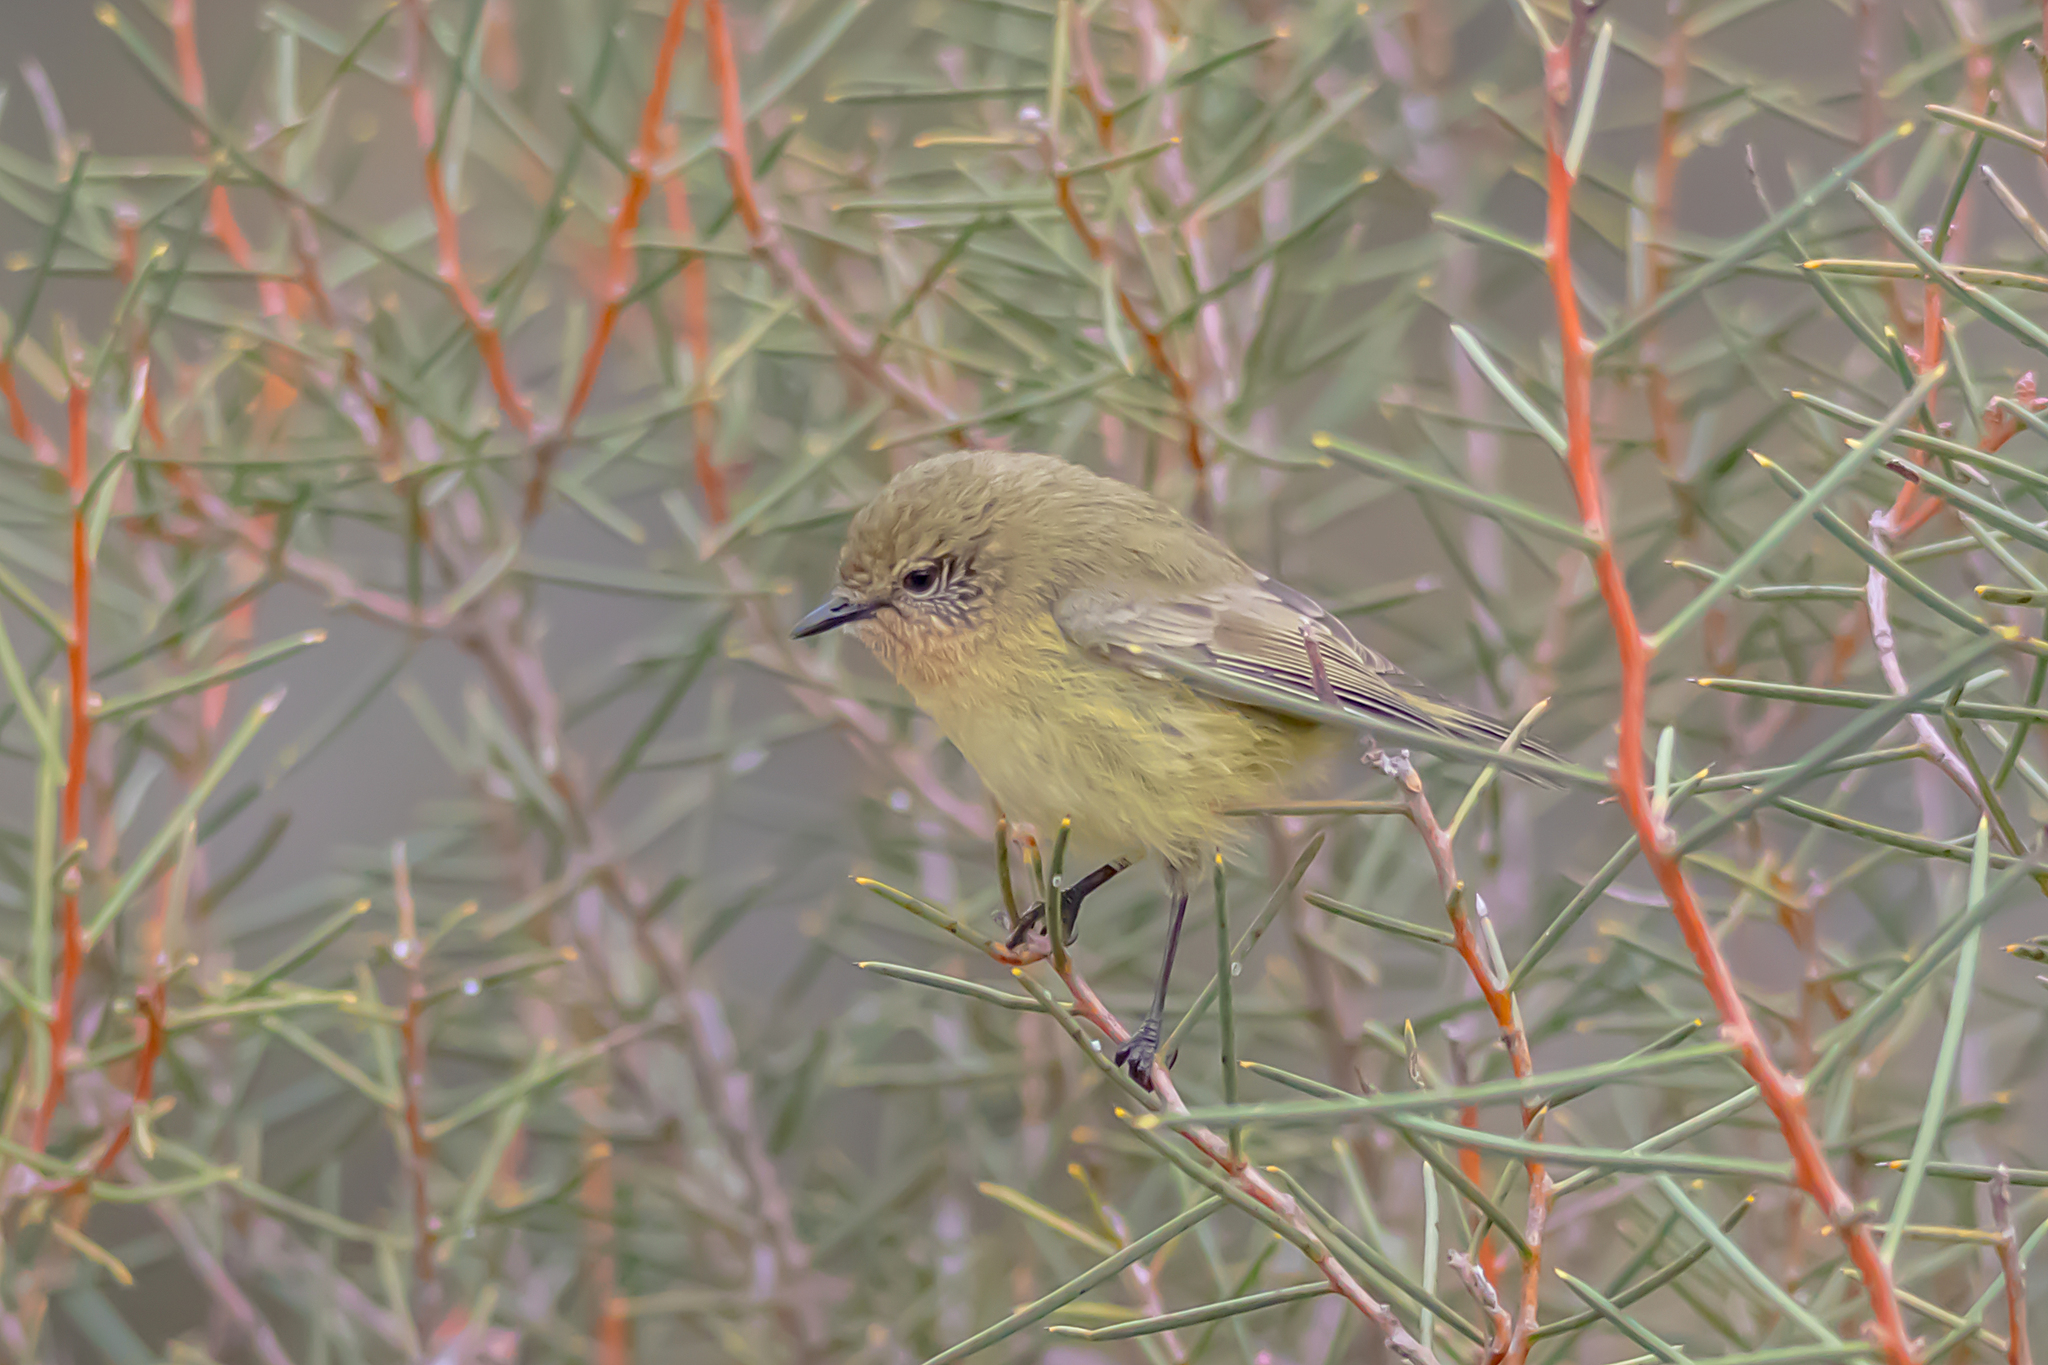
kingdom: Animalia
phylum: Chordata
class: Aves
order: Passeriformes
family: Acanthizidae
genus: Acanthiza
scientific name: Acanthiza nana
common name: Yellow thornbill
